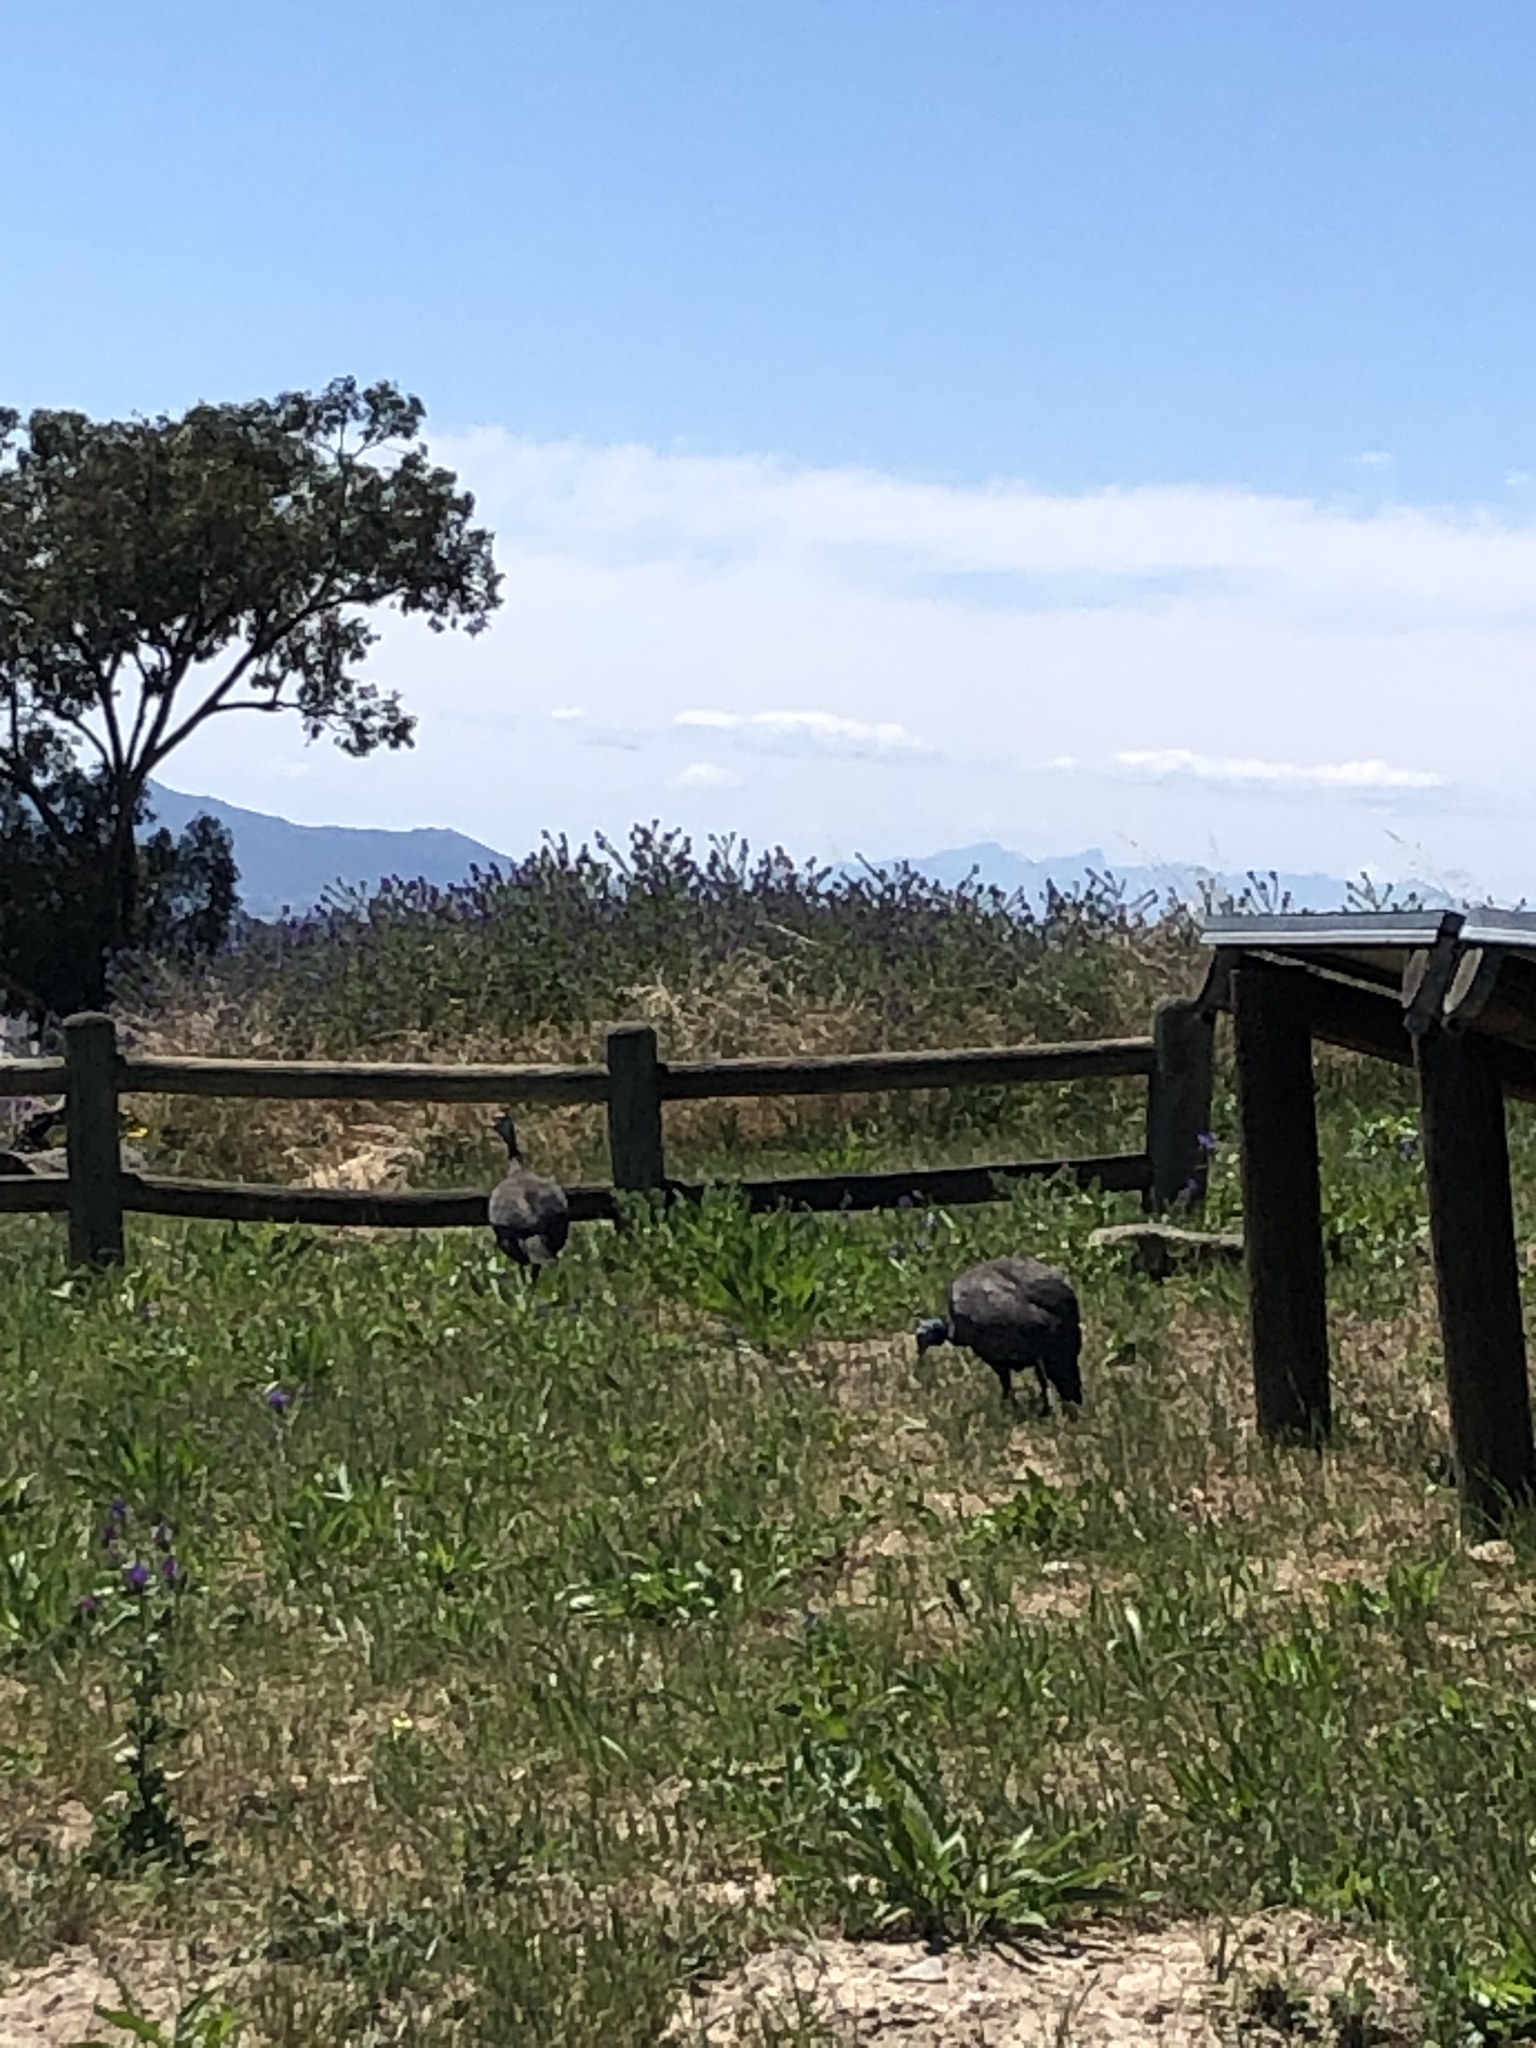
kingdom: Animalia
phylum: Chordata
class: Aves
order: Galliformes
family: Numididae
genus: Numida
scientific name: Numida meleagris
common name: Helmeted guineafowl
